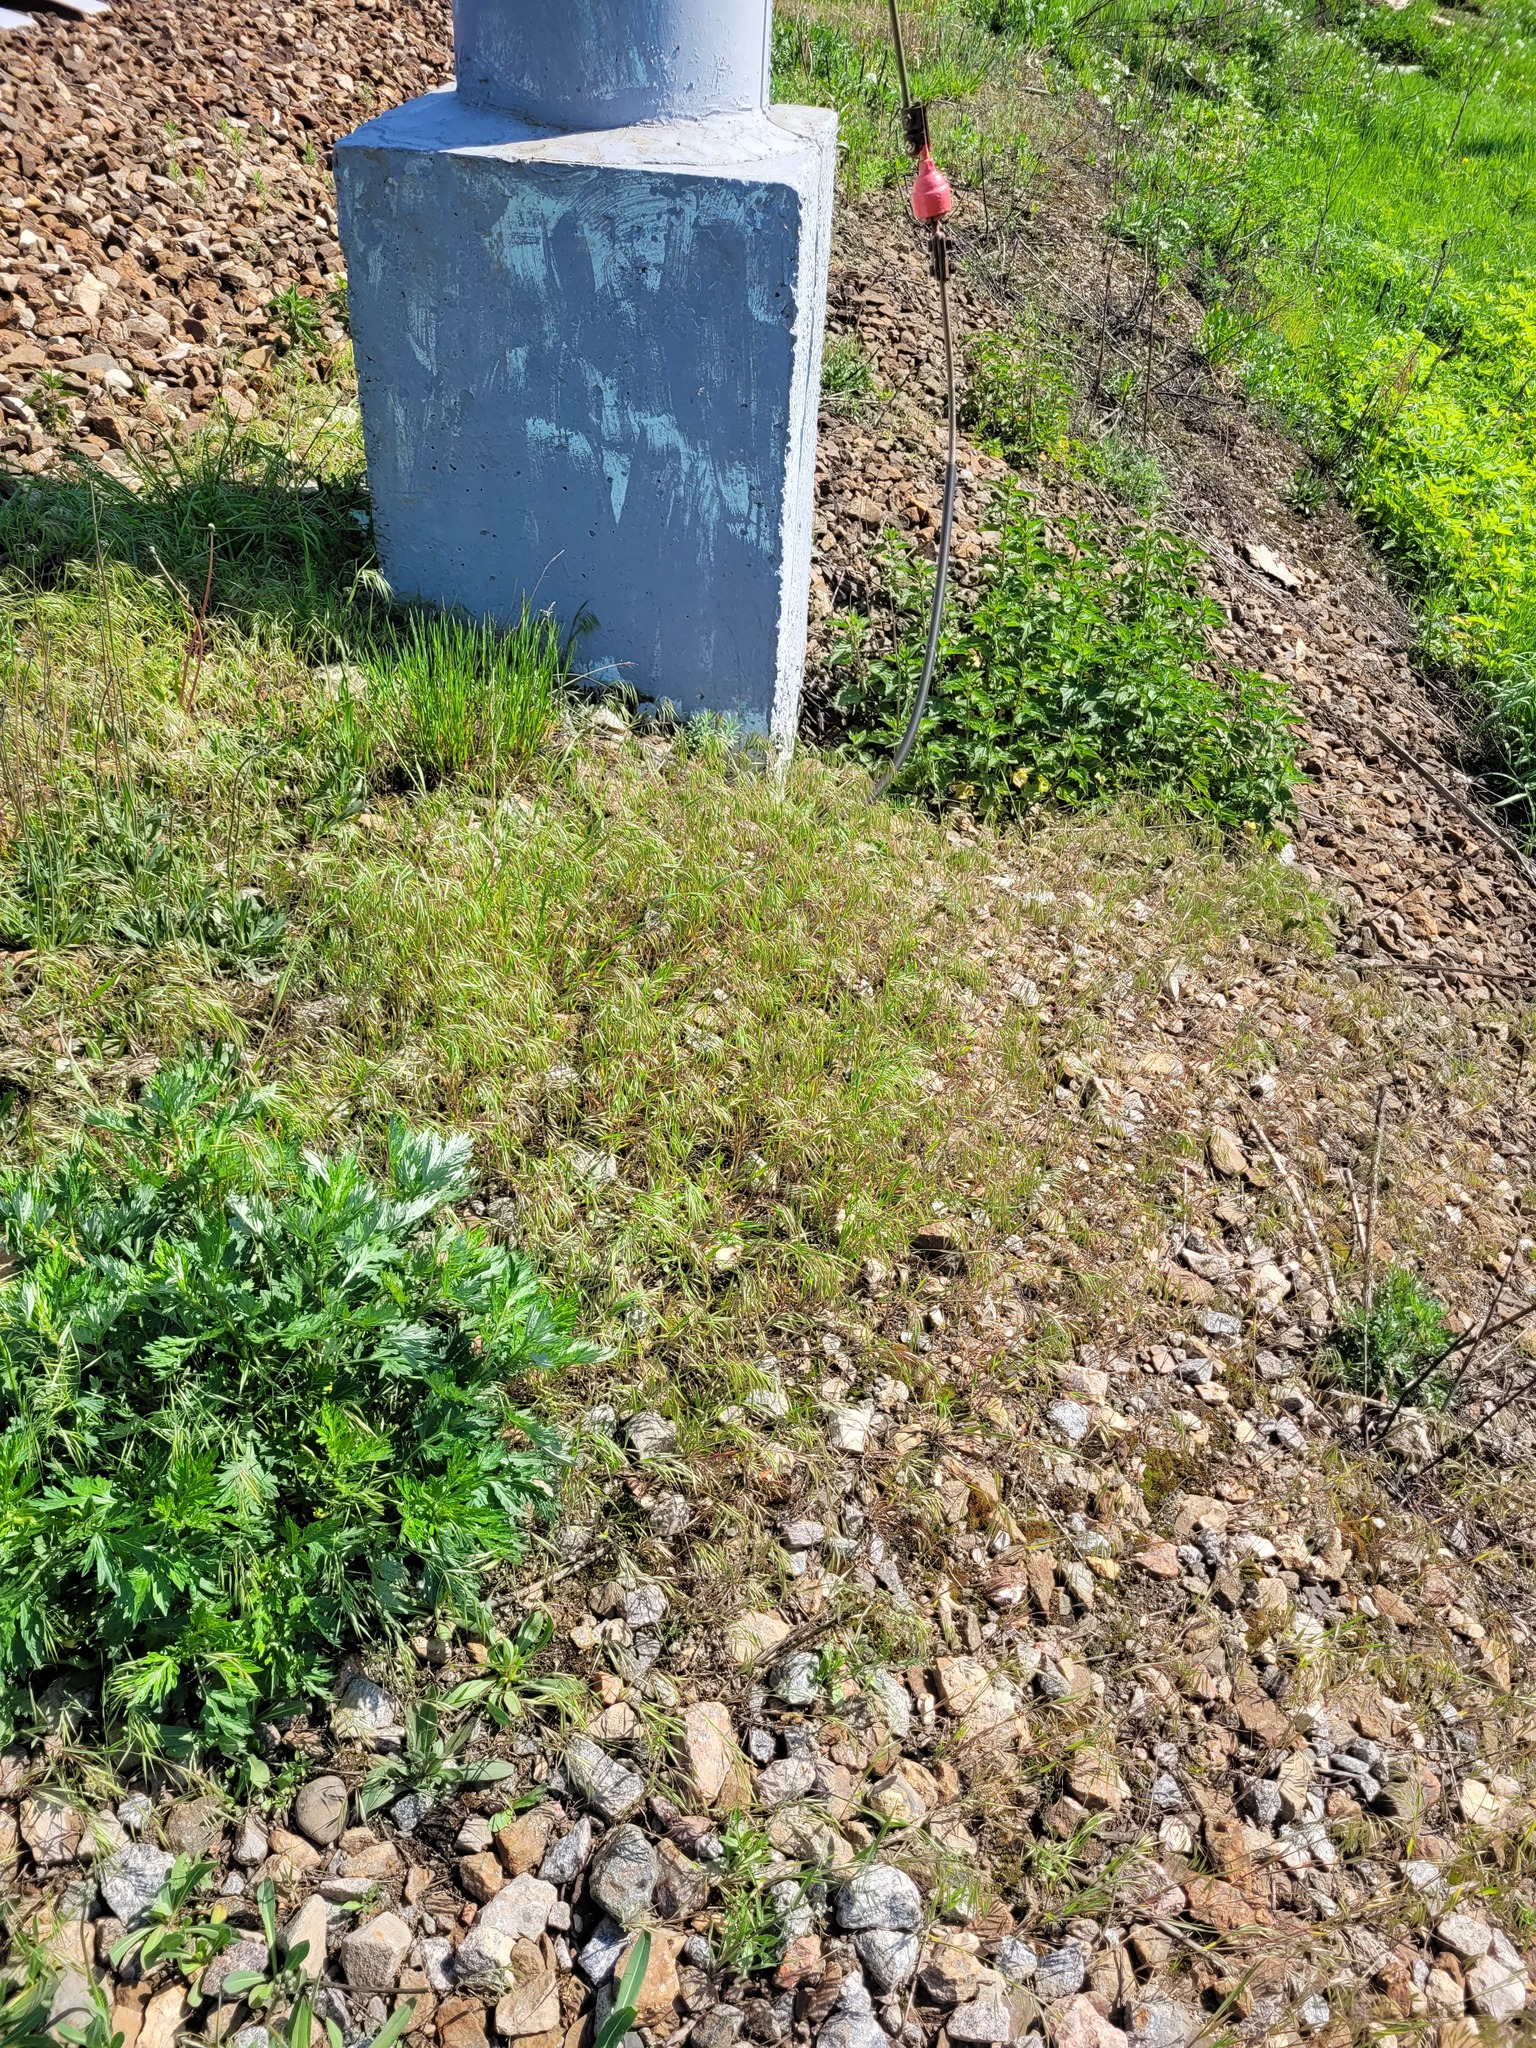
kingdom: Plantae
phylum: Tracheophyta
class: Liliopsida
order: Poales
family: Poaceae
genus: Bromus
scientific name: Bromus tectorum
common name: Cheatgrass
